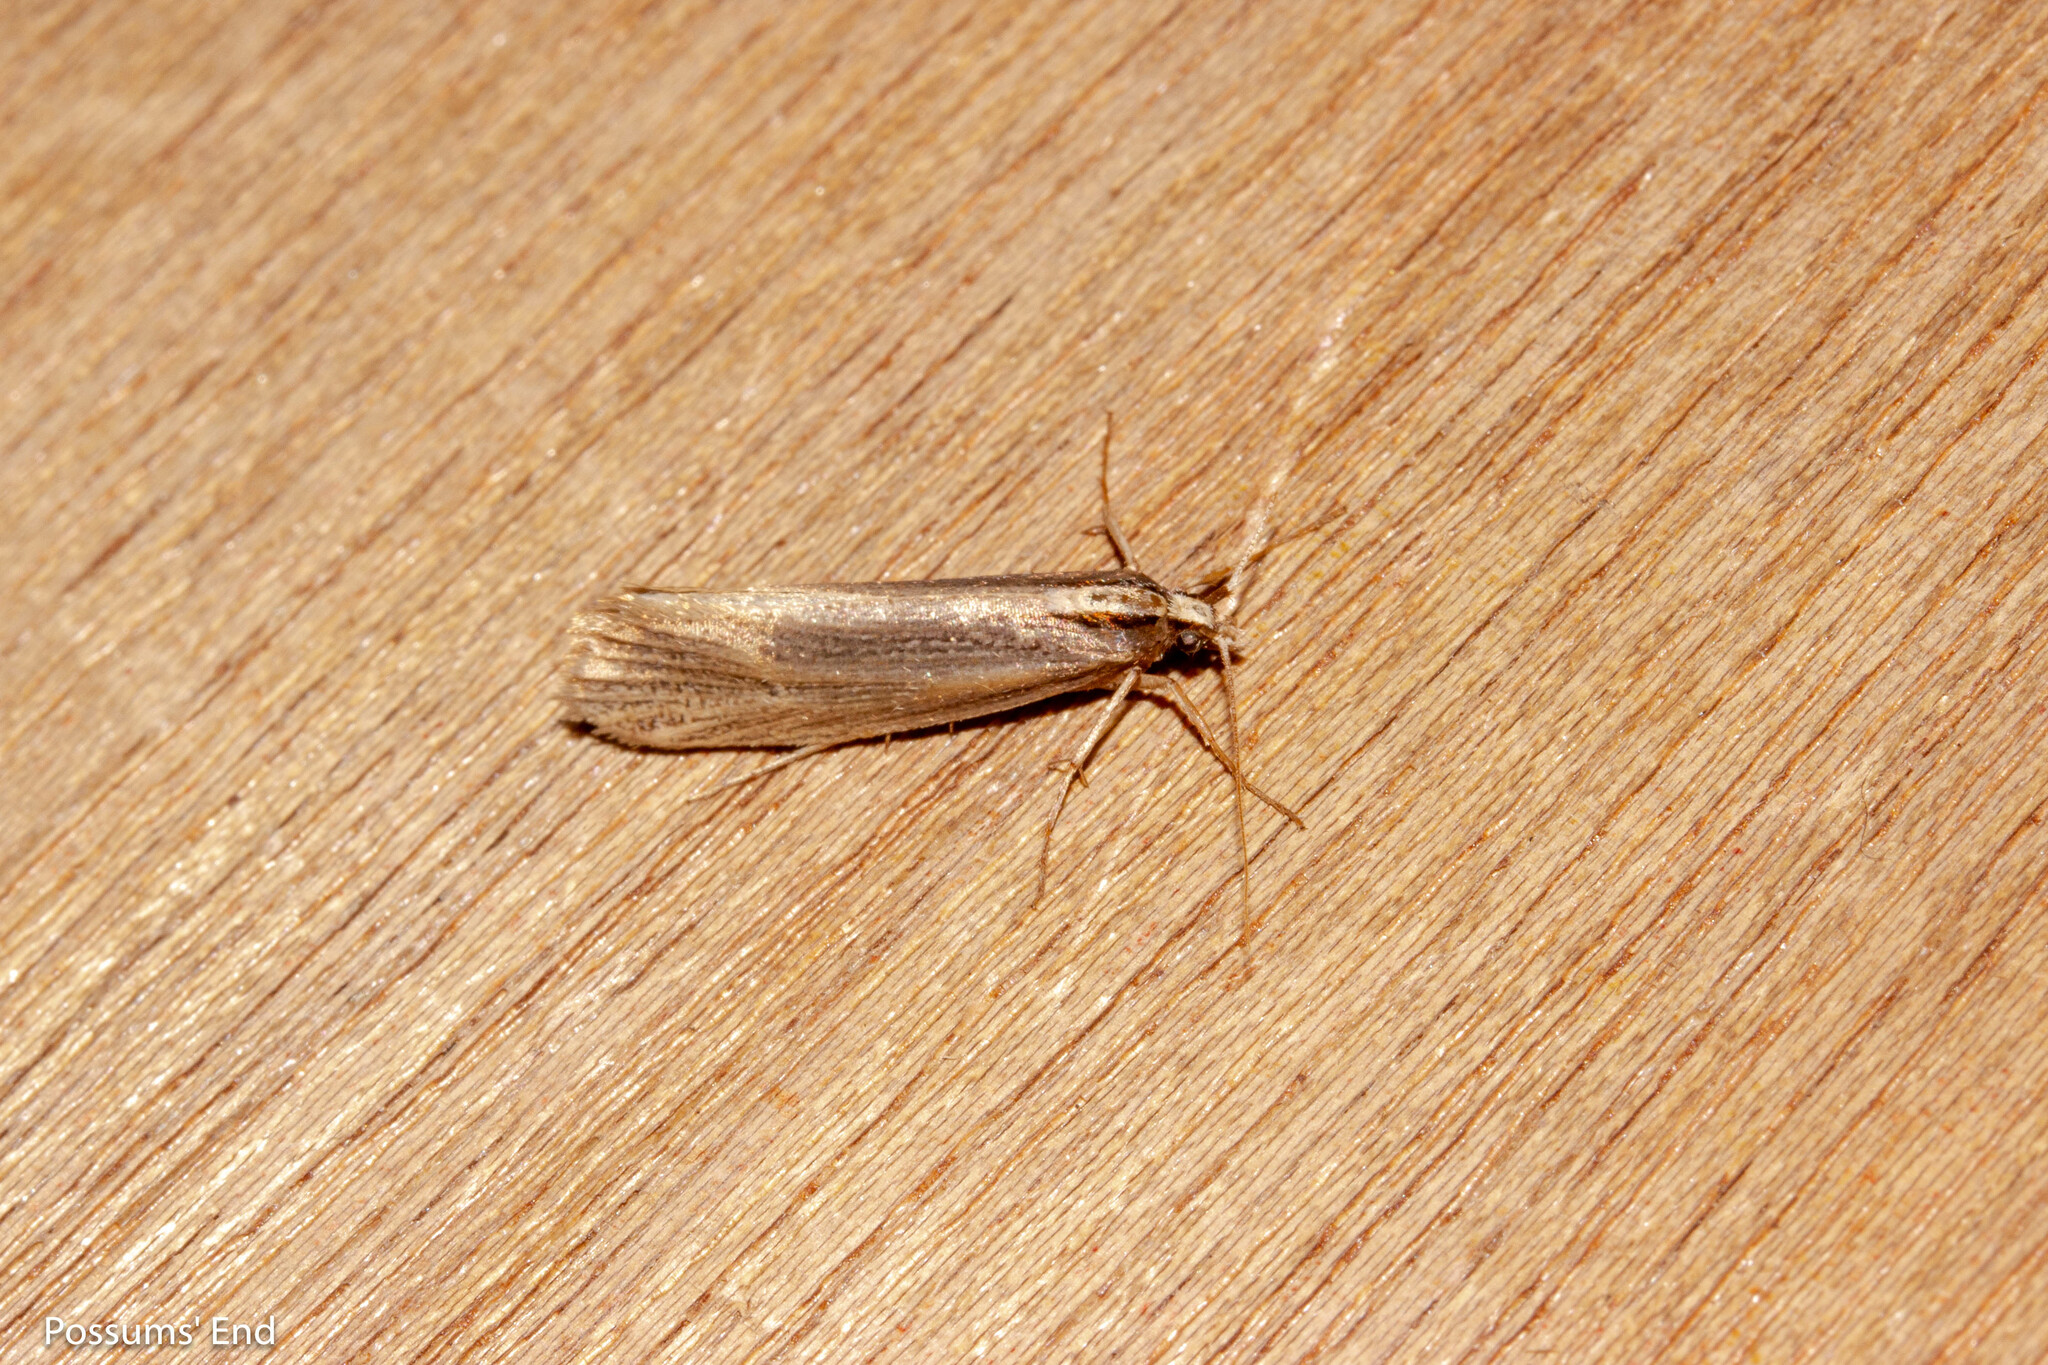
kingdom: Animalia
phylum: Arthropoda
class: Insecta
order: Lepidoptera
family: Plutellidae
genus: Proditrix
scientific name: Proditrix megalynta
